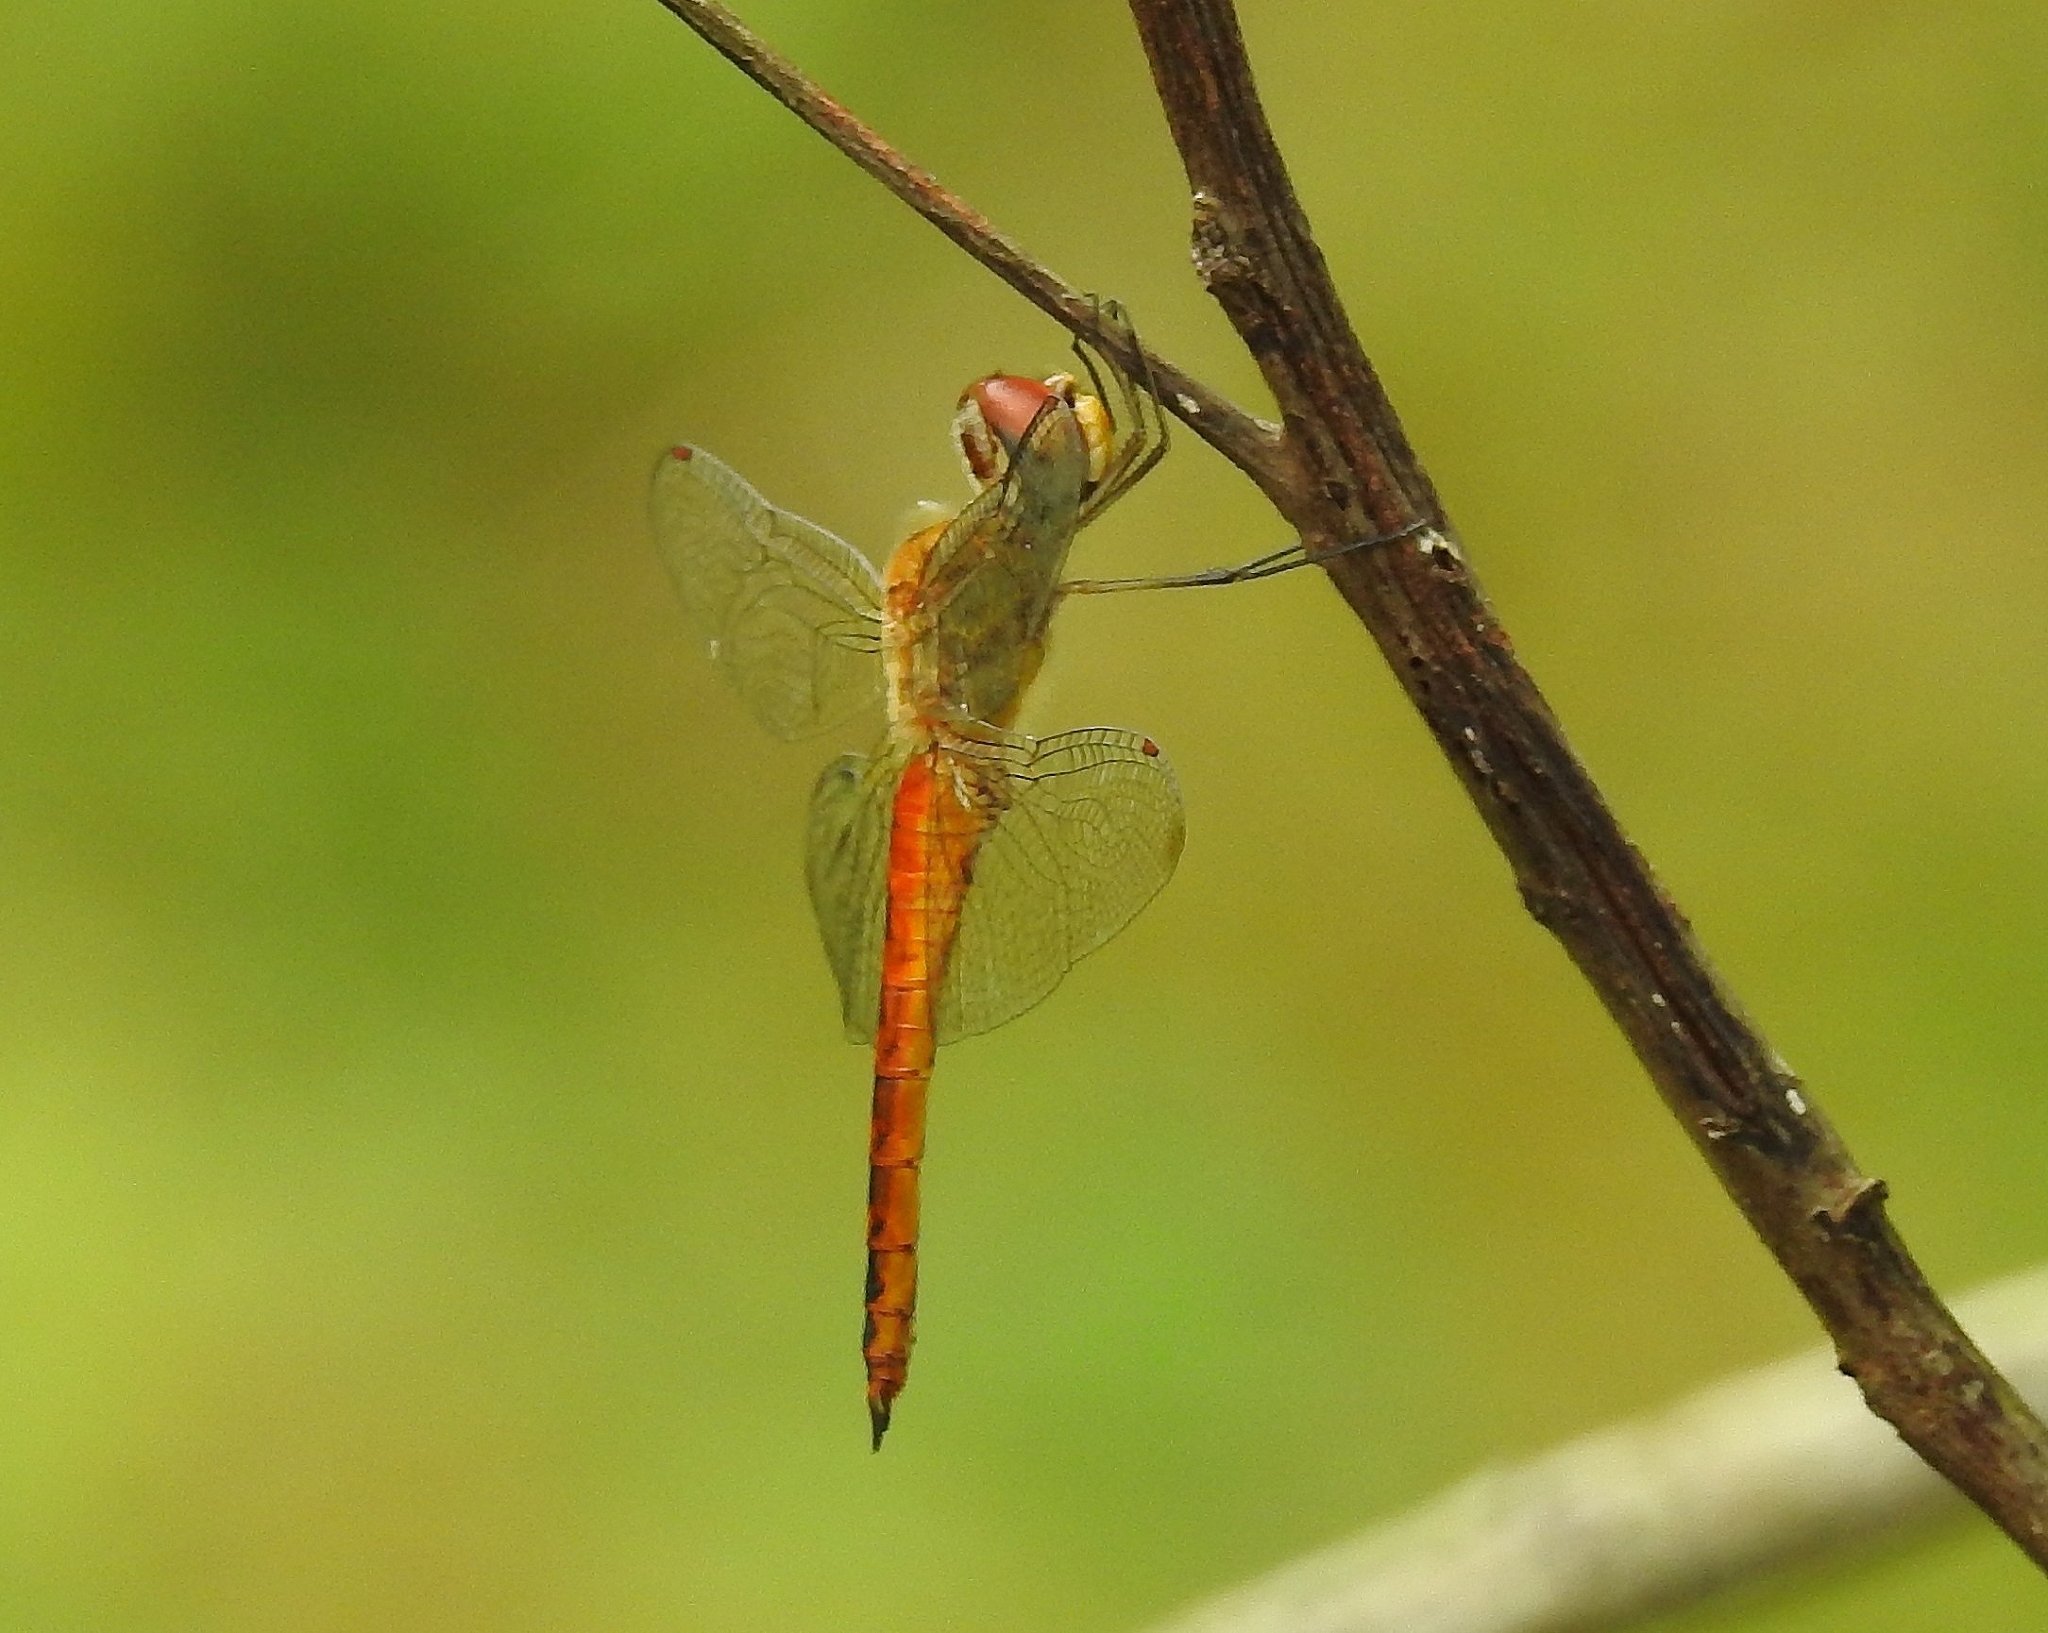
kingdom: Animalia
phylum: Arthropoda
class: Insecta
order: Odonata
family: Libellulidae
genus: Pantala
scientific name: Pantala flavescens
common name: Wandering glider
